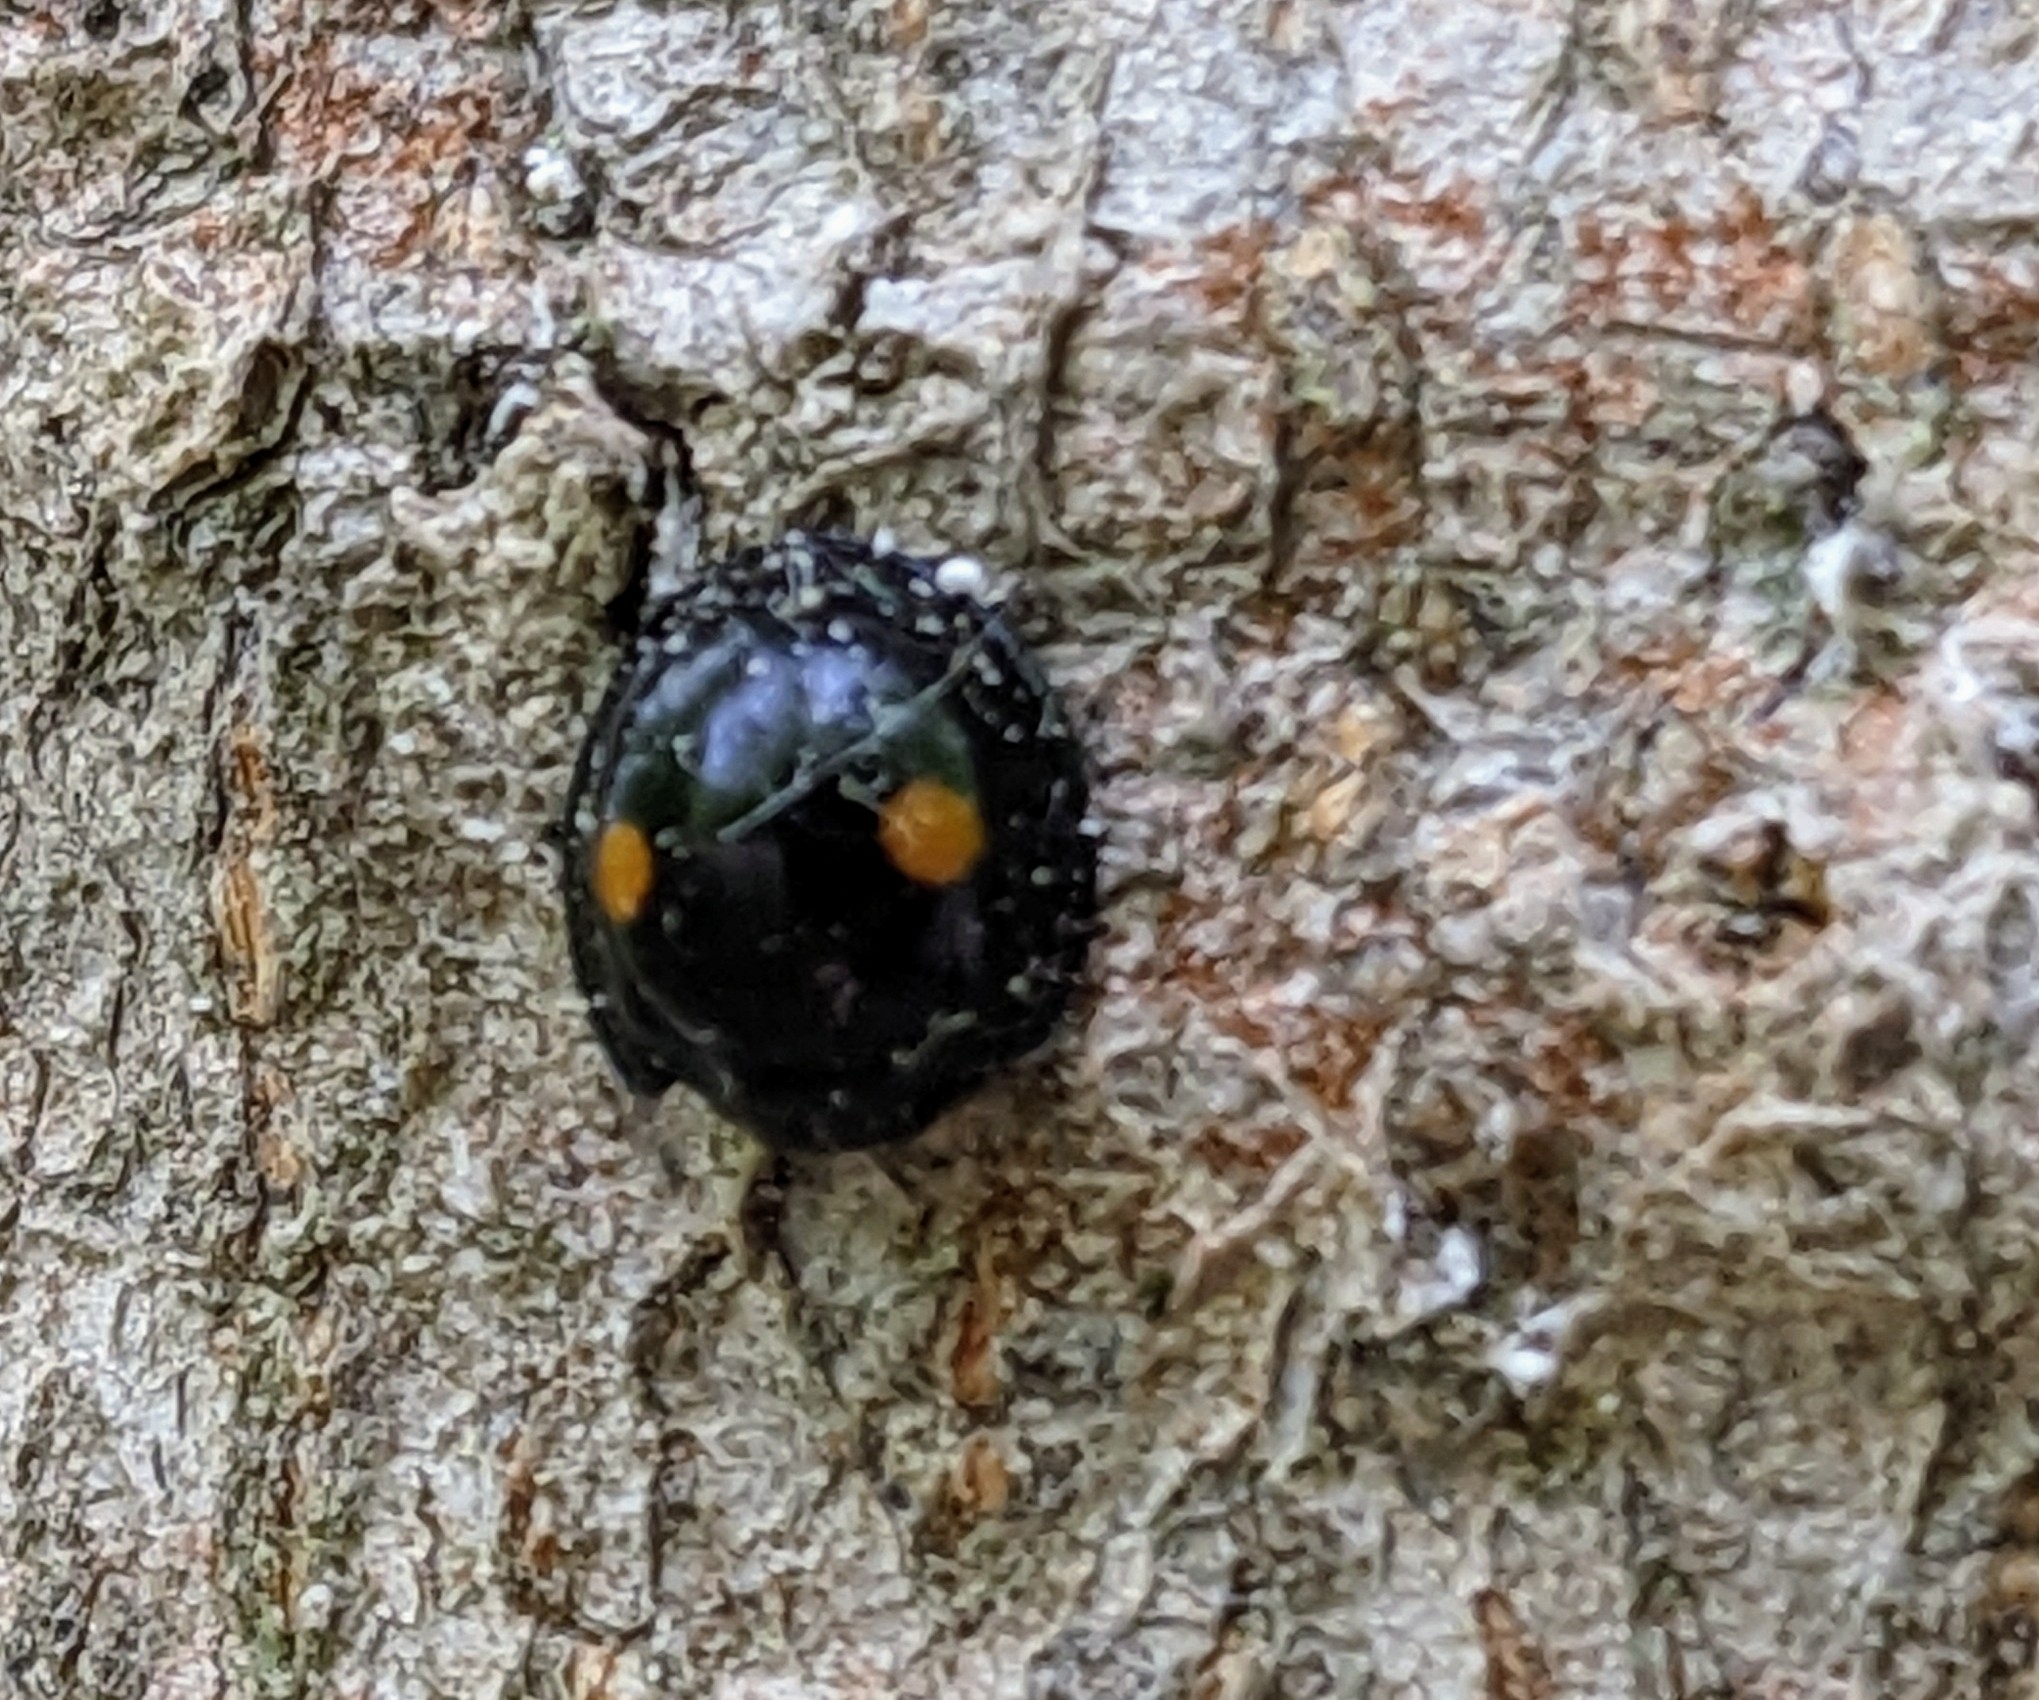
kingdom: Animalia
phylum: Arthropoda
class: Insecta
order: Coleoptera
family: Coccinellidae
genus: Chilocorus
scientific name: Chilocorus stigma
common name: Twicestabbed lady beetle
